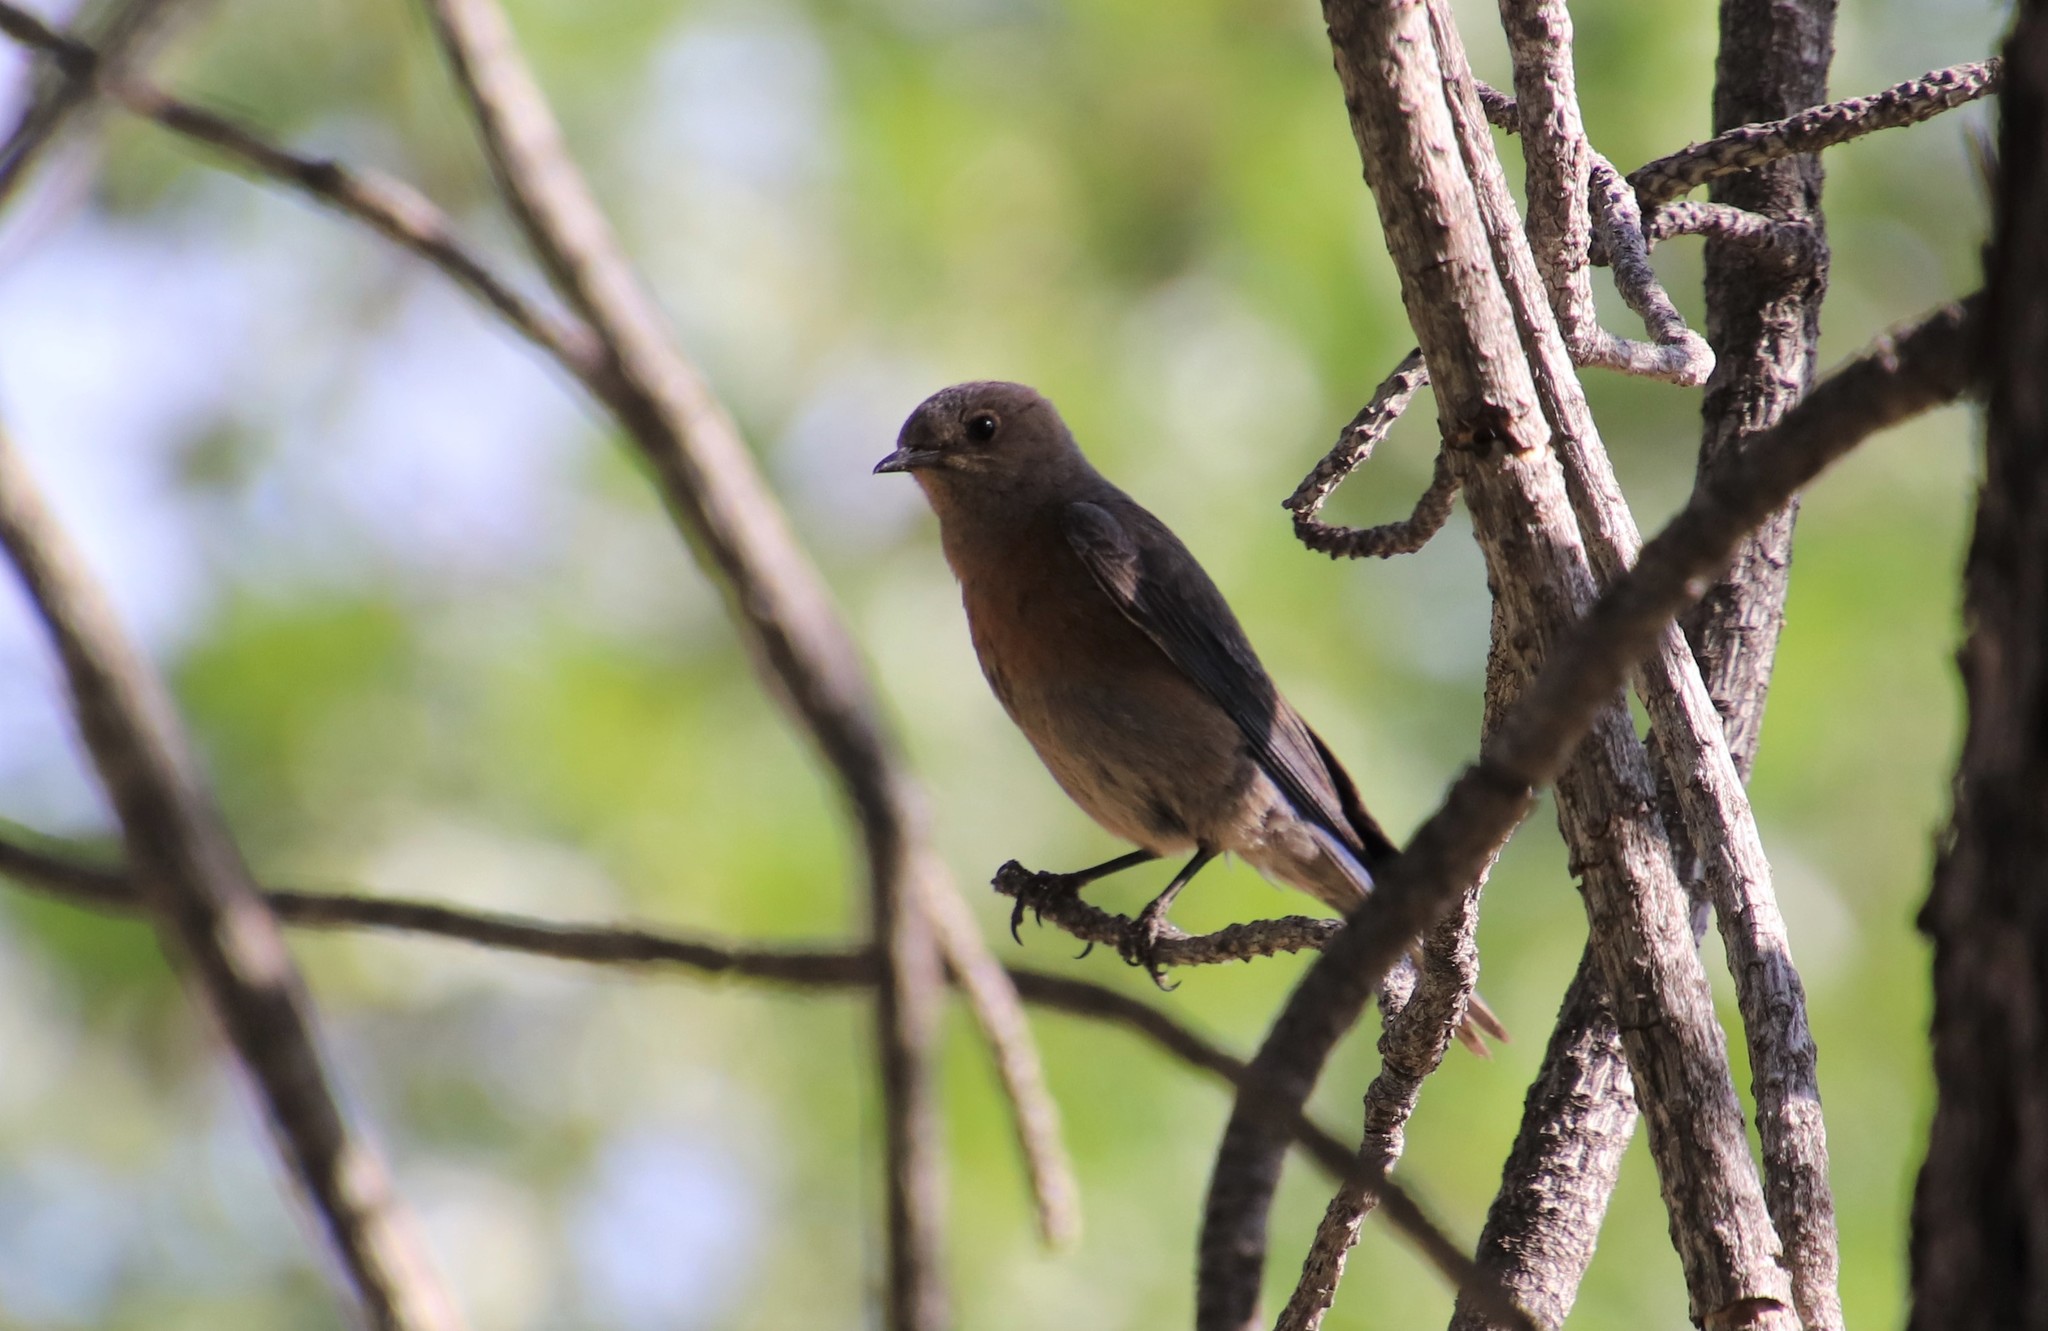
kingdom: Animalia
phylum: Chordata
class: Aves
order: Passeriformes
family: Turdidae
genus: Sialia
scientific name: Sialia mexicana
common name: Western bluebird
